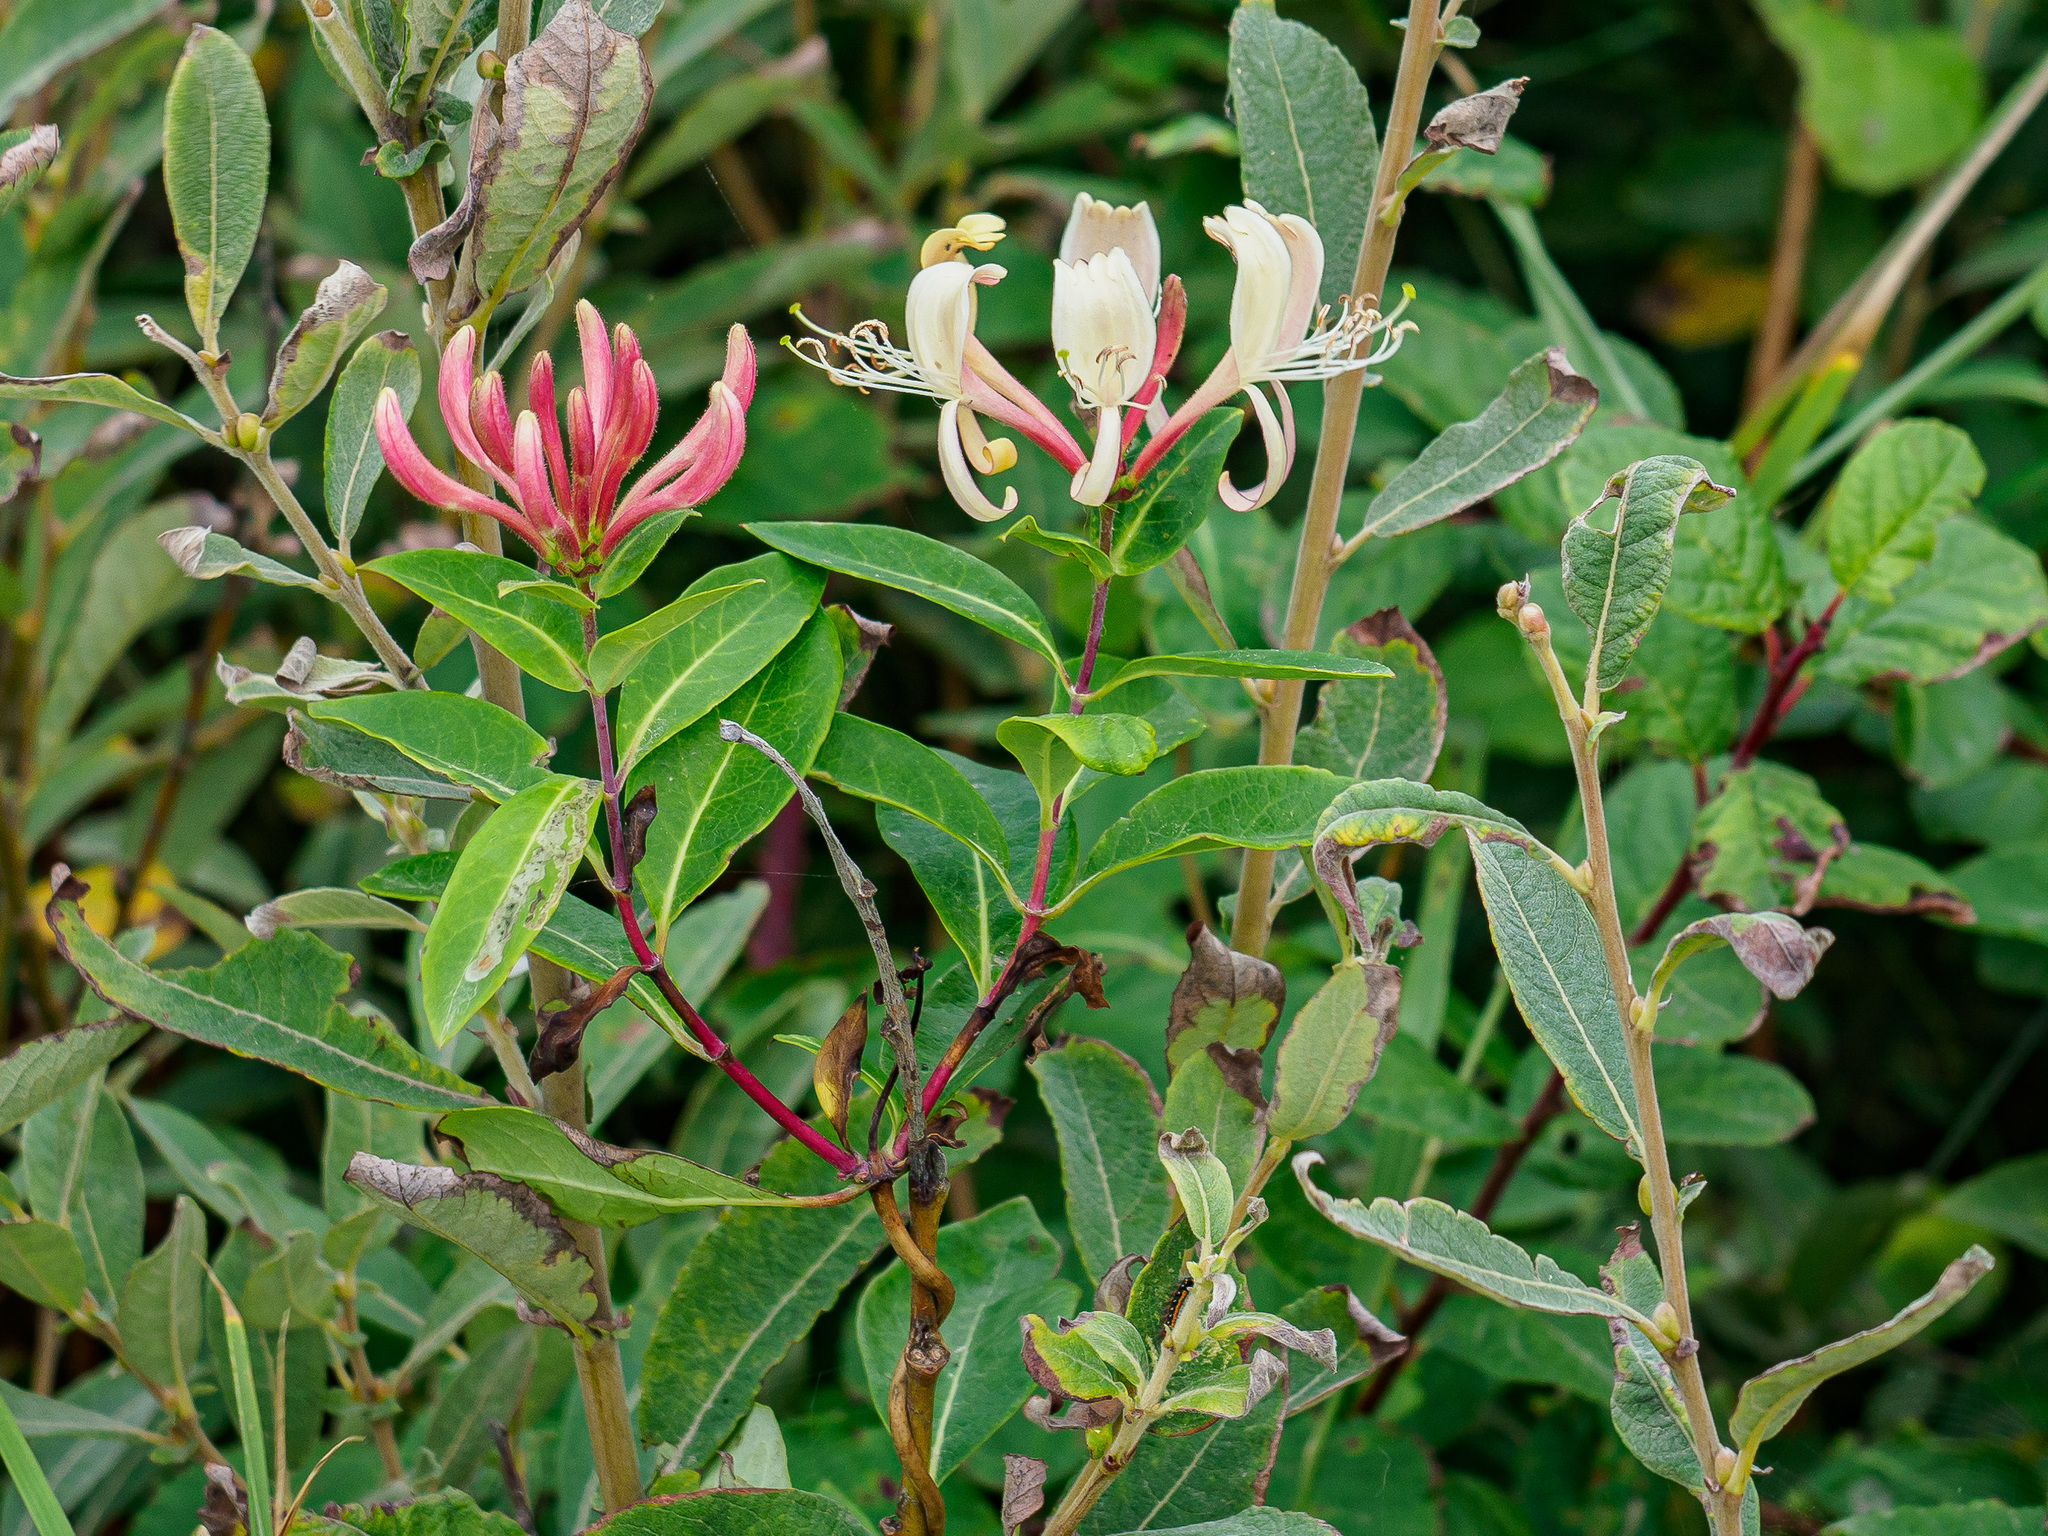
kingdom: Plantae
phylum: Tracheophyta
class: Magnoliopsida
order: Dipsacales
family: Caprifoliaceae
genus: Lonicera
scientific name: Lonicera periclymenum
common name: European honeysuckle
